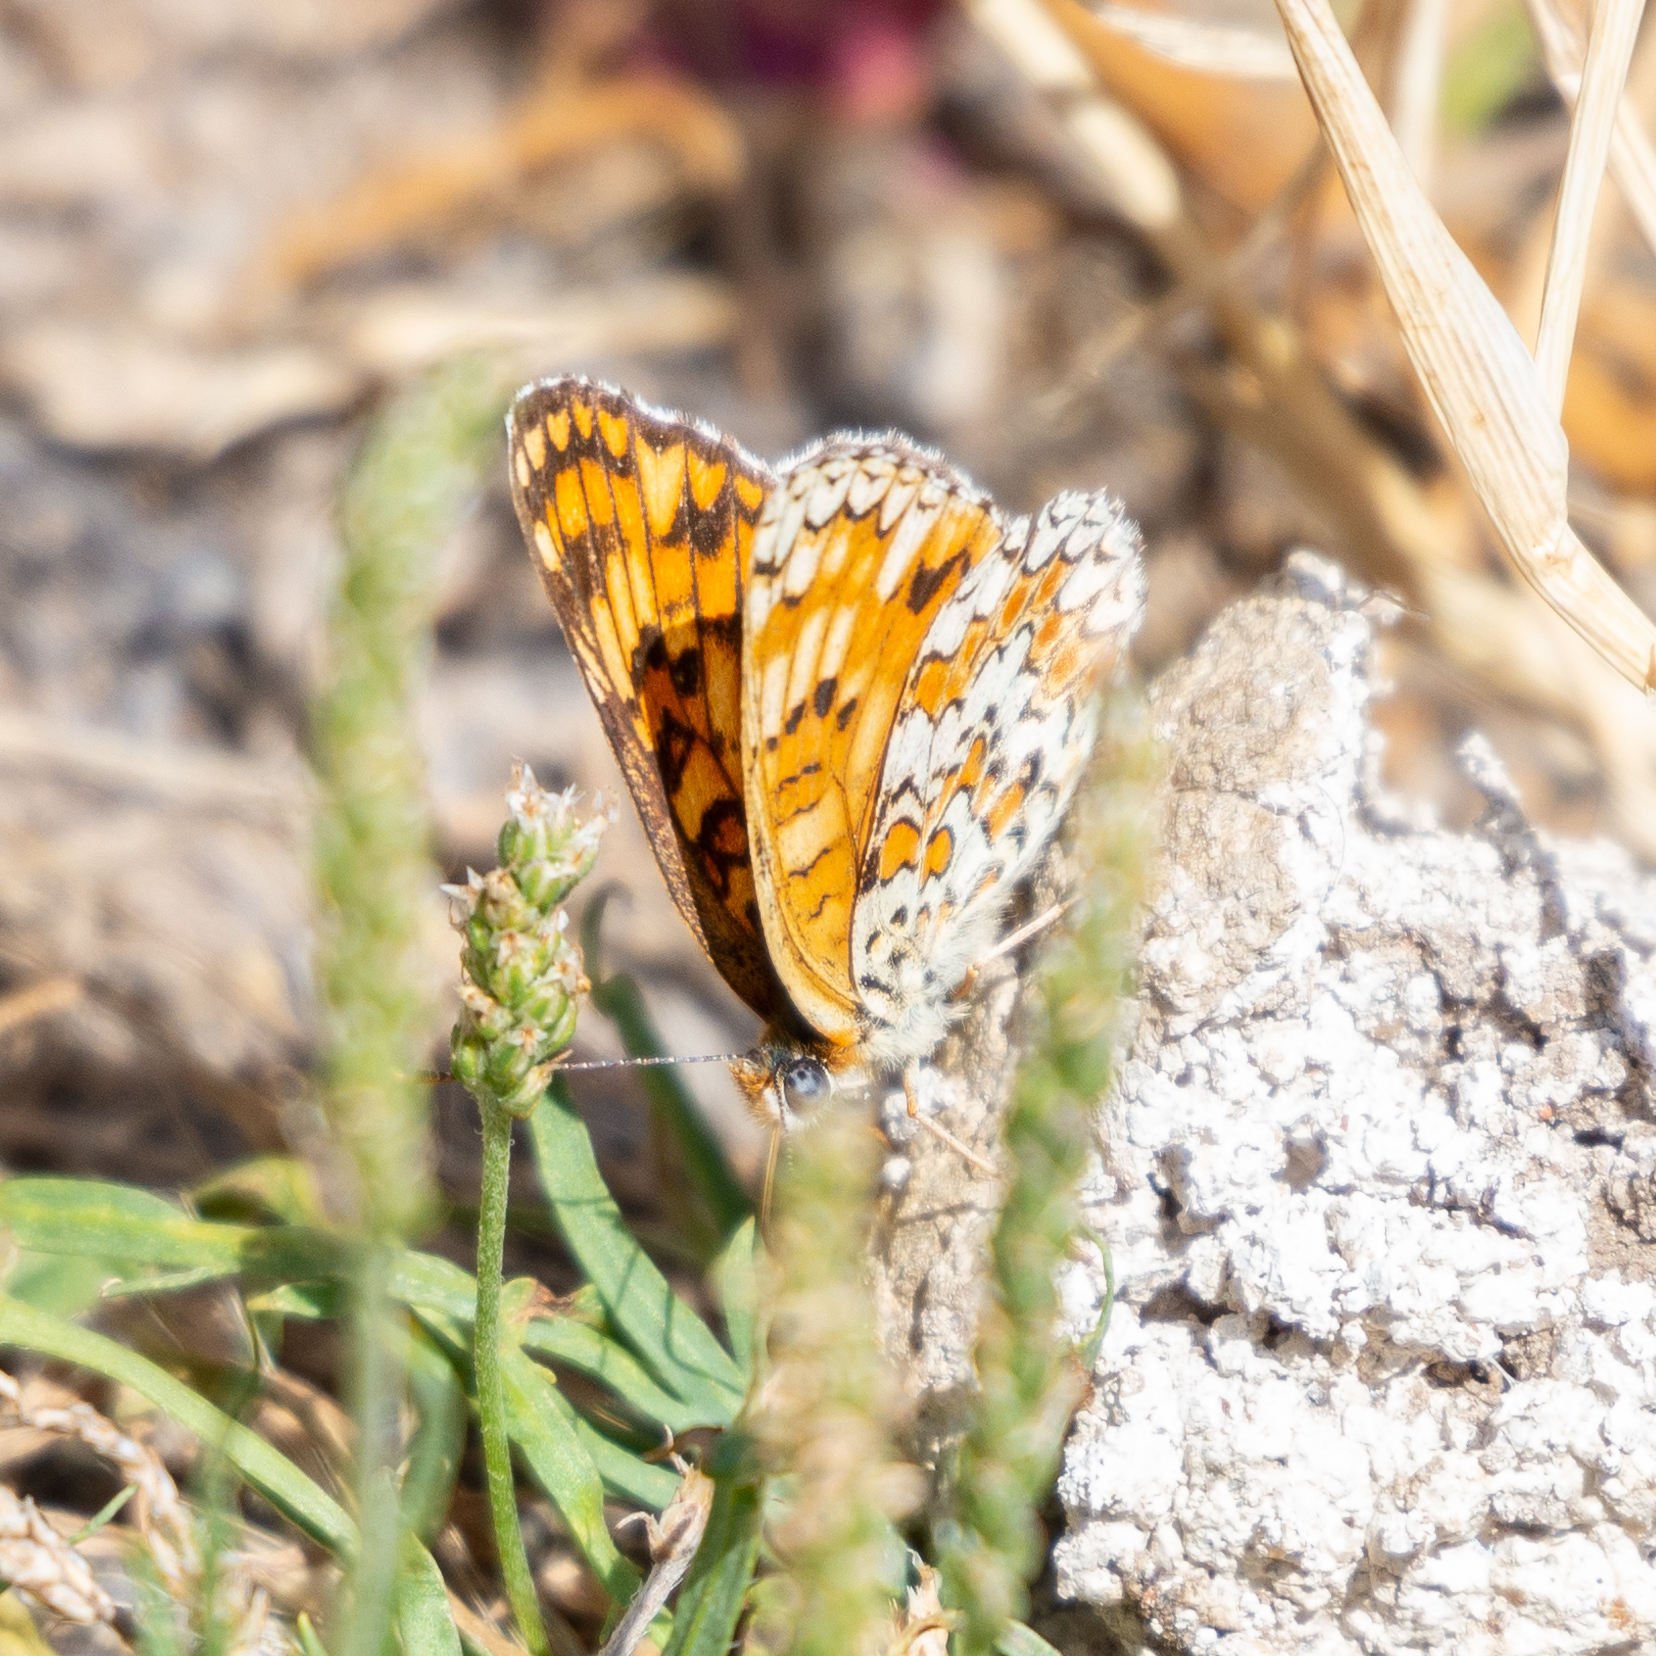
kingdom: Animalia
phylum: Arthropoda
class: Insecta
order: Lepidoptera
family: Nymphalidae
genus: Melitaea
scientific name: Melitaea phoebe
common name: Knapweed fritillary
